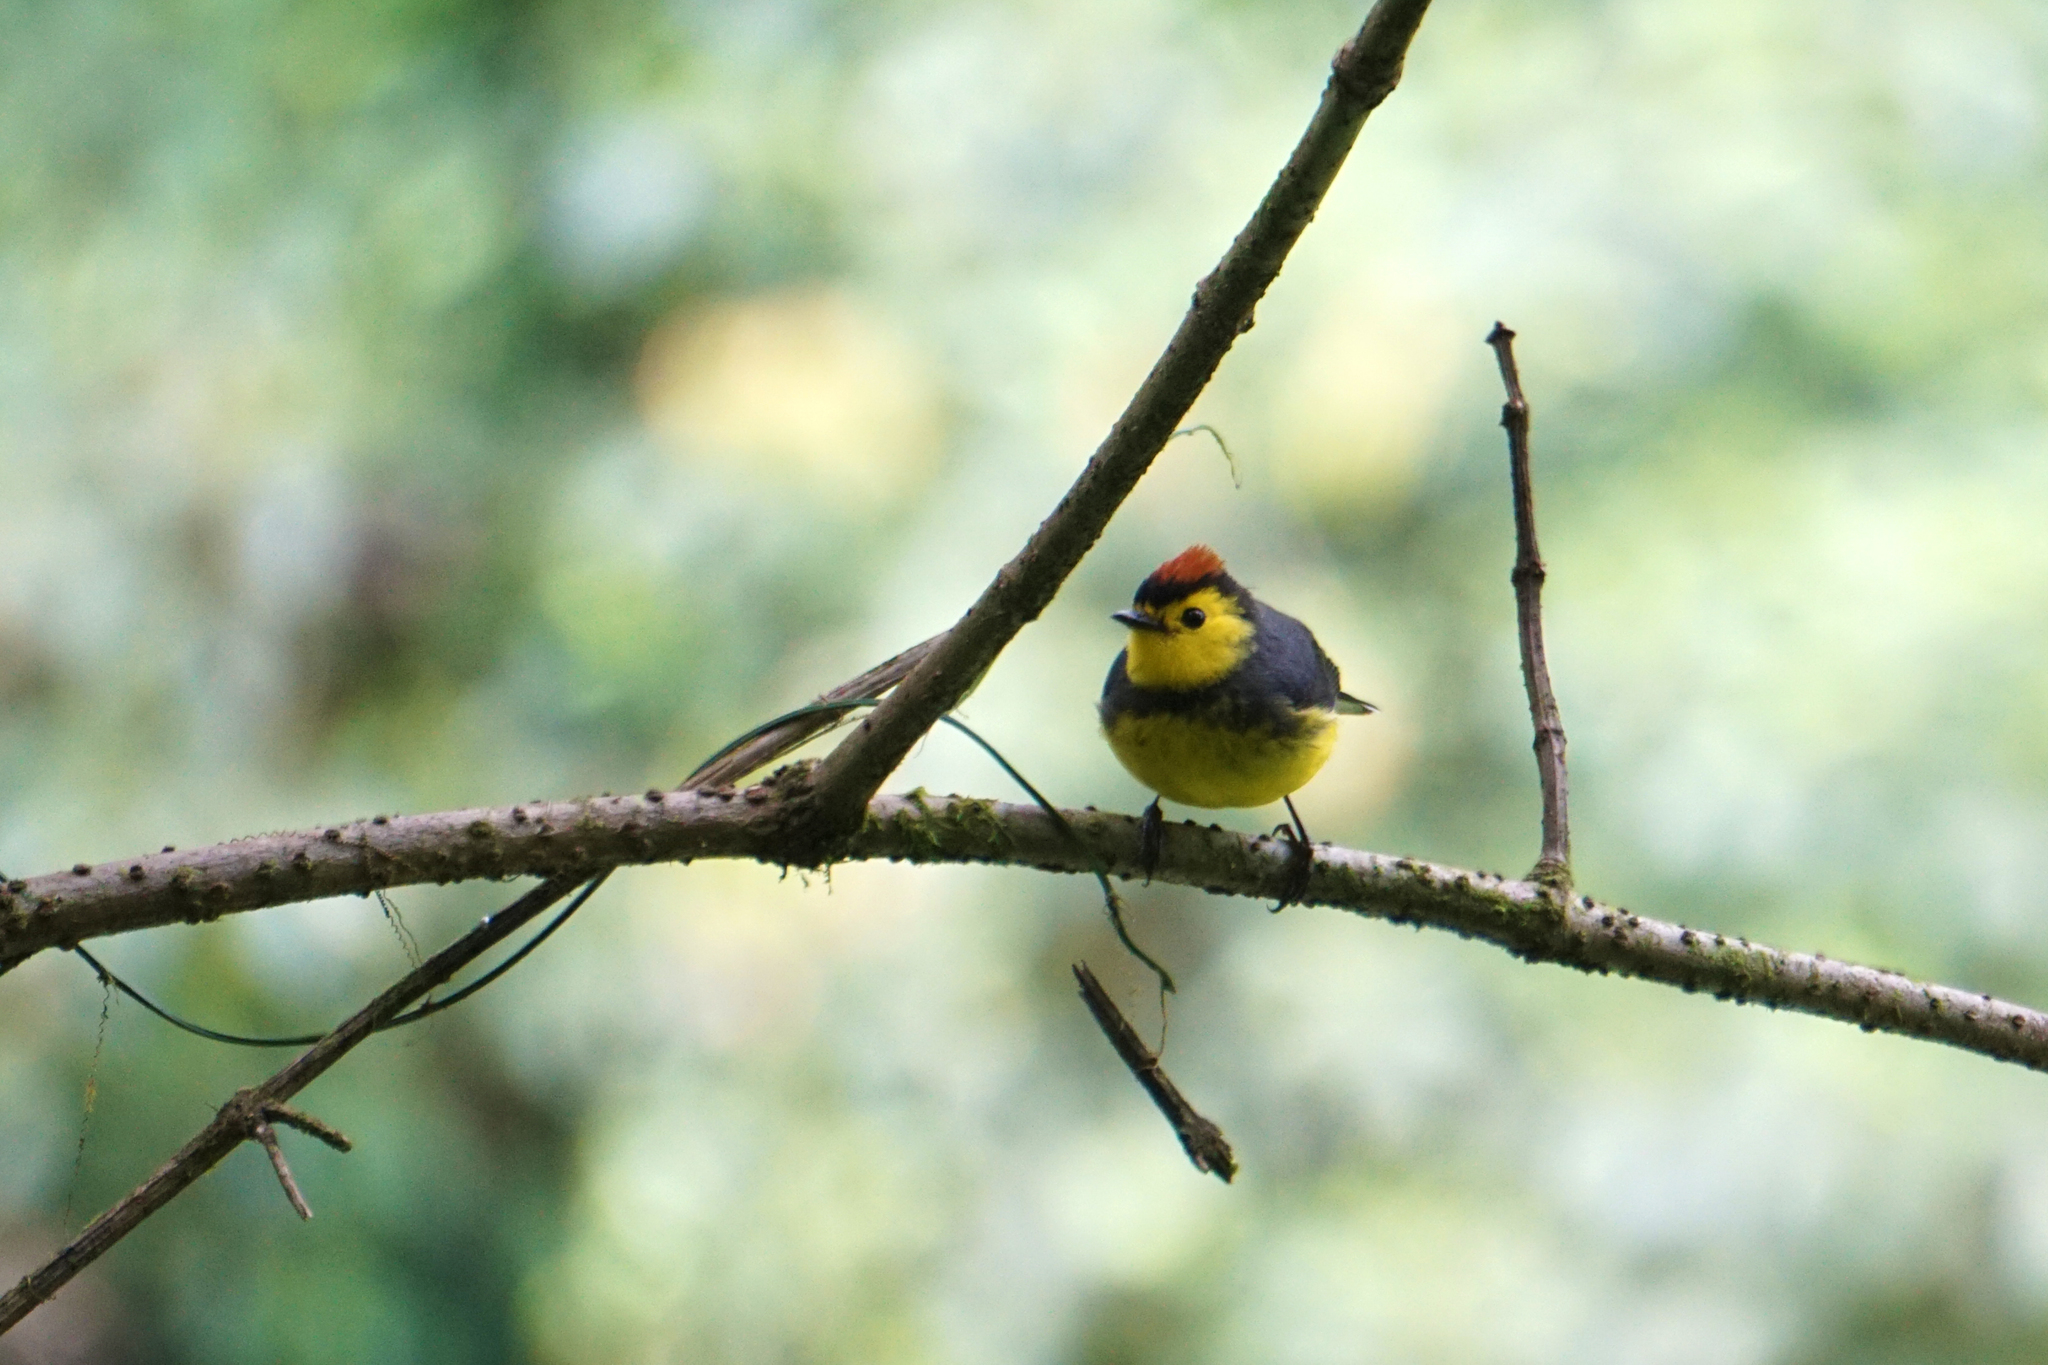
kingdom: Animalia
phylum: Chordata
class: Aves
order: Passeriformes
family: Parulidae
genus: Myioborus
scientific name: Myioborus torquatus
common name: Collared whitestart
